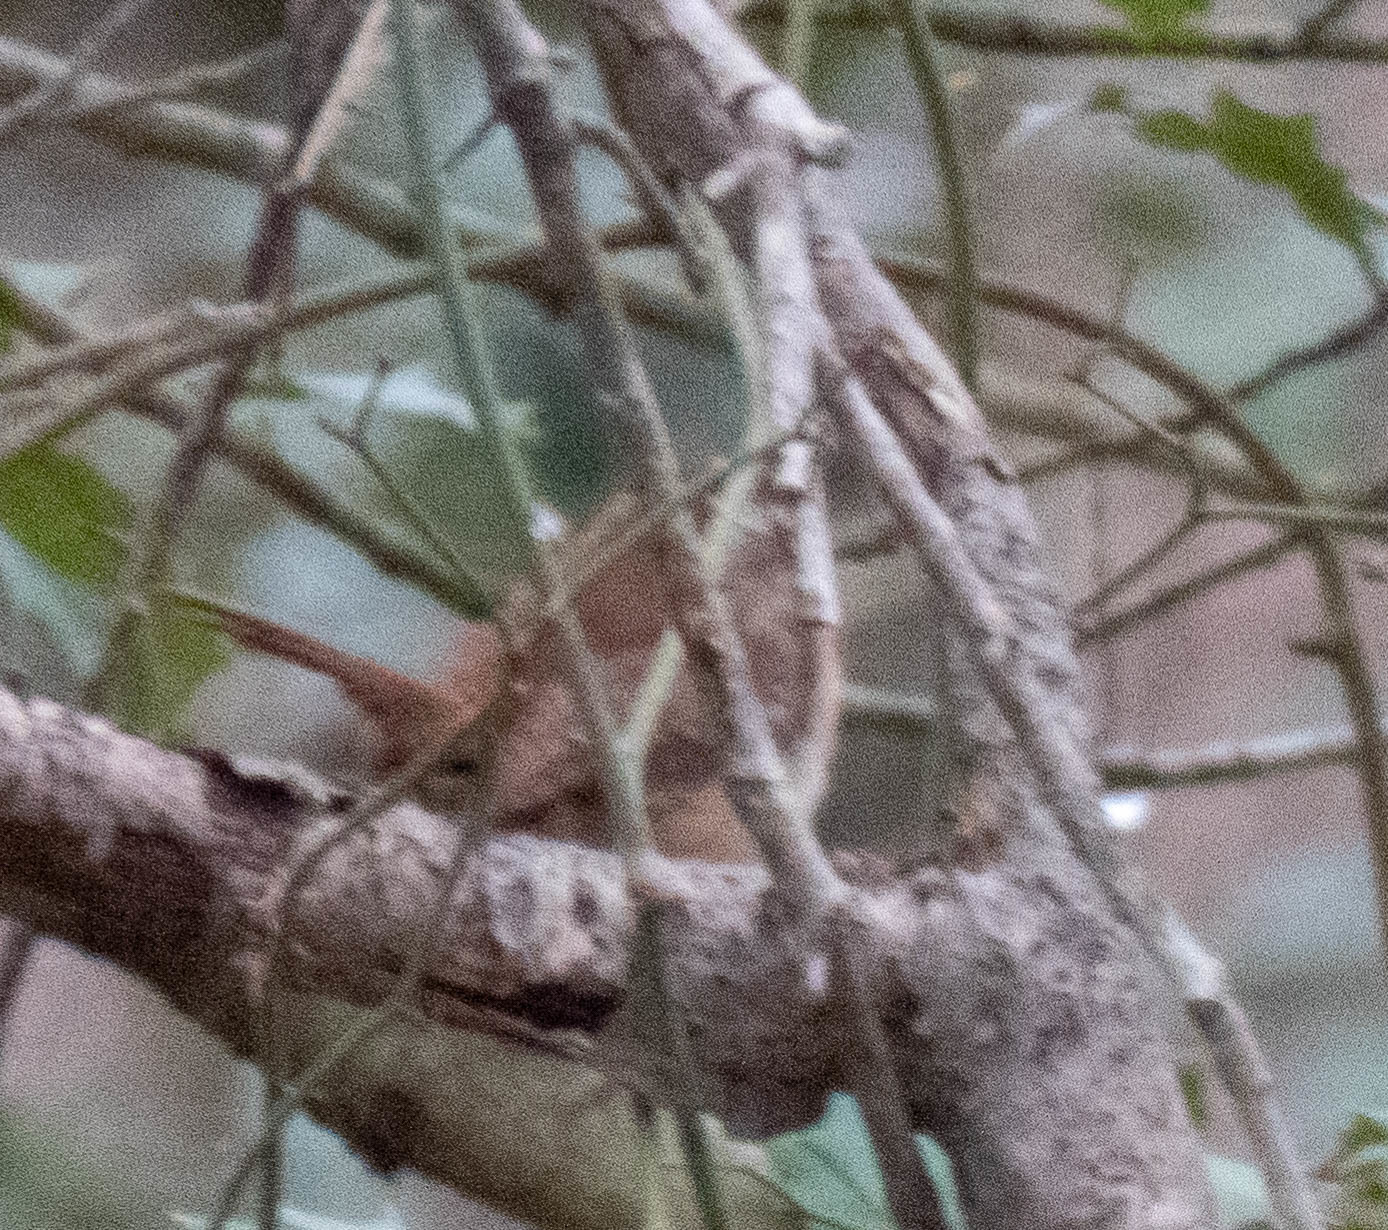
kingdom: Animalia
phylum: Chordata
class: Aves
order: Passeriformes
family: Troglodytidae
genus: Thryothorus
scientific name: Thryothorus ludovicianus
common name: Carolina wren
